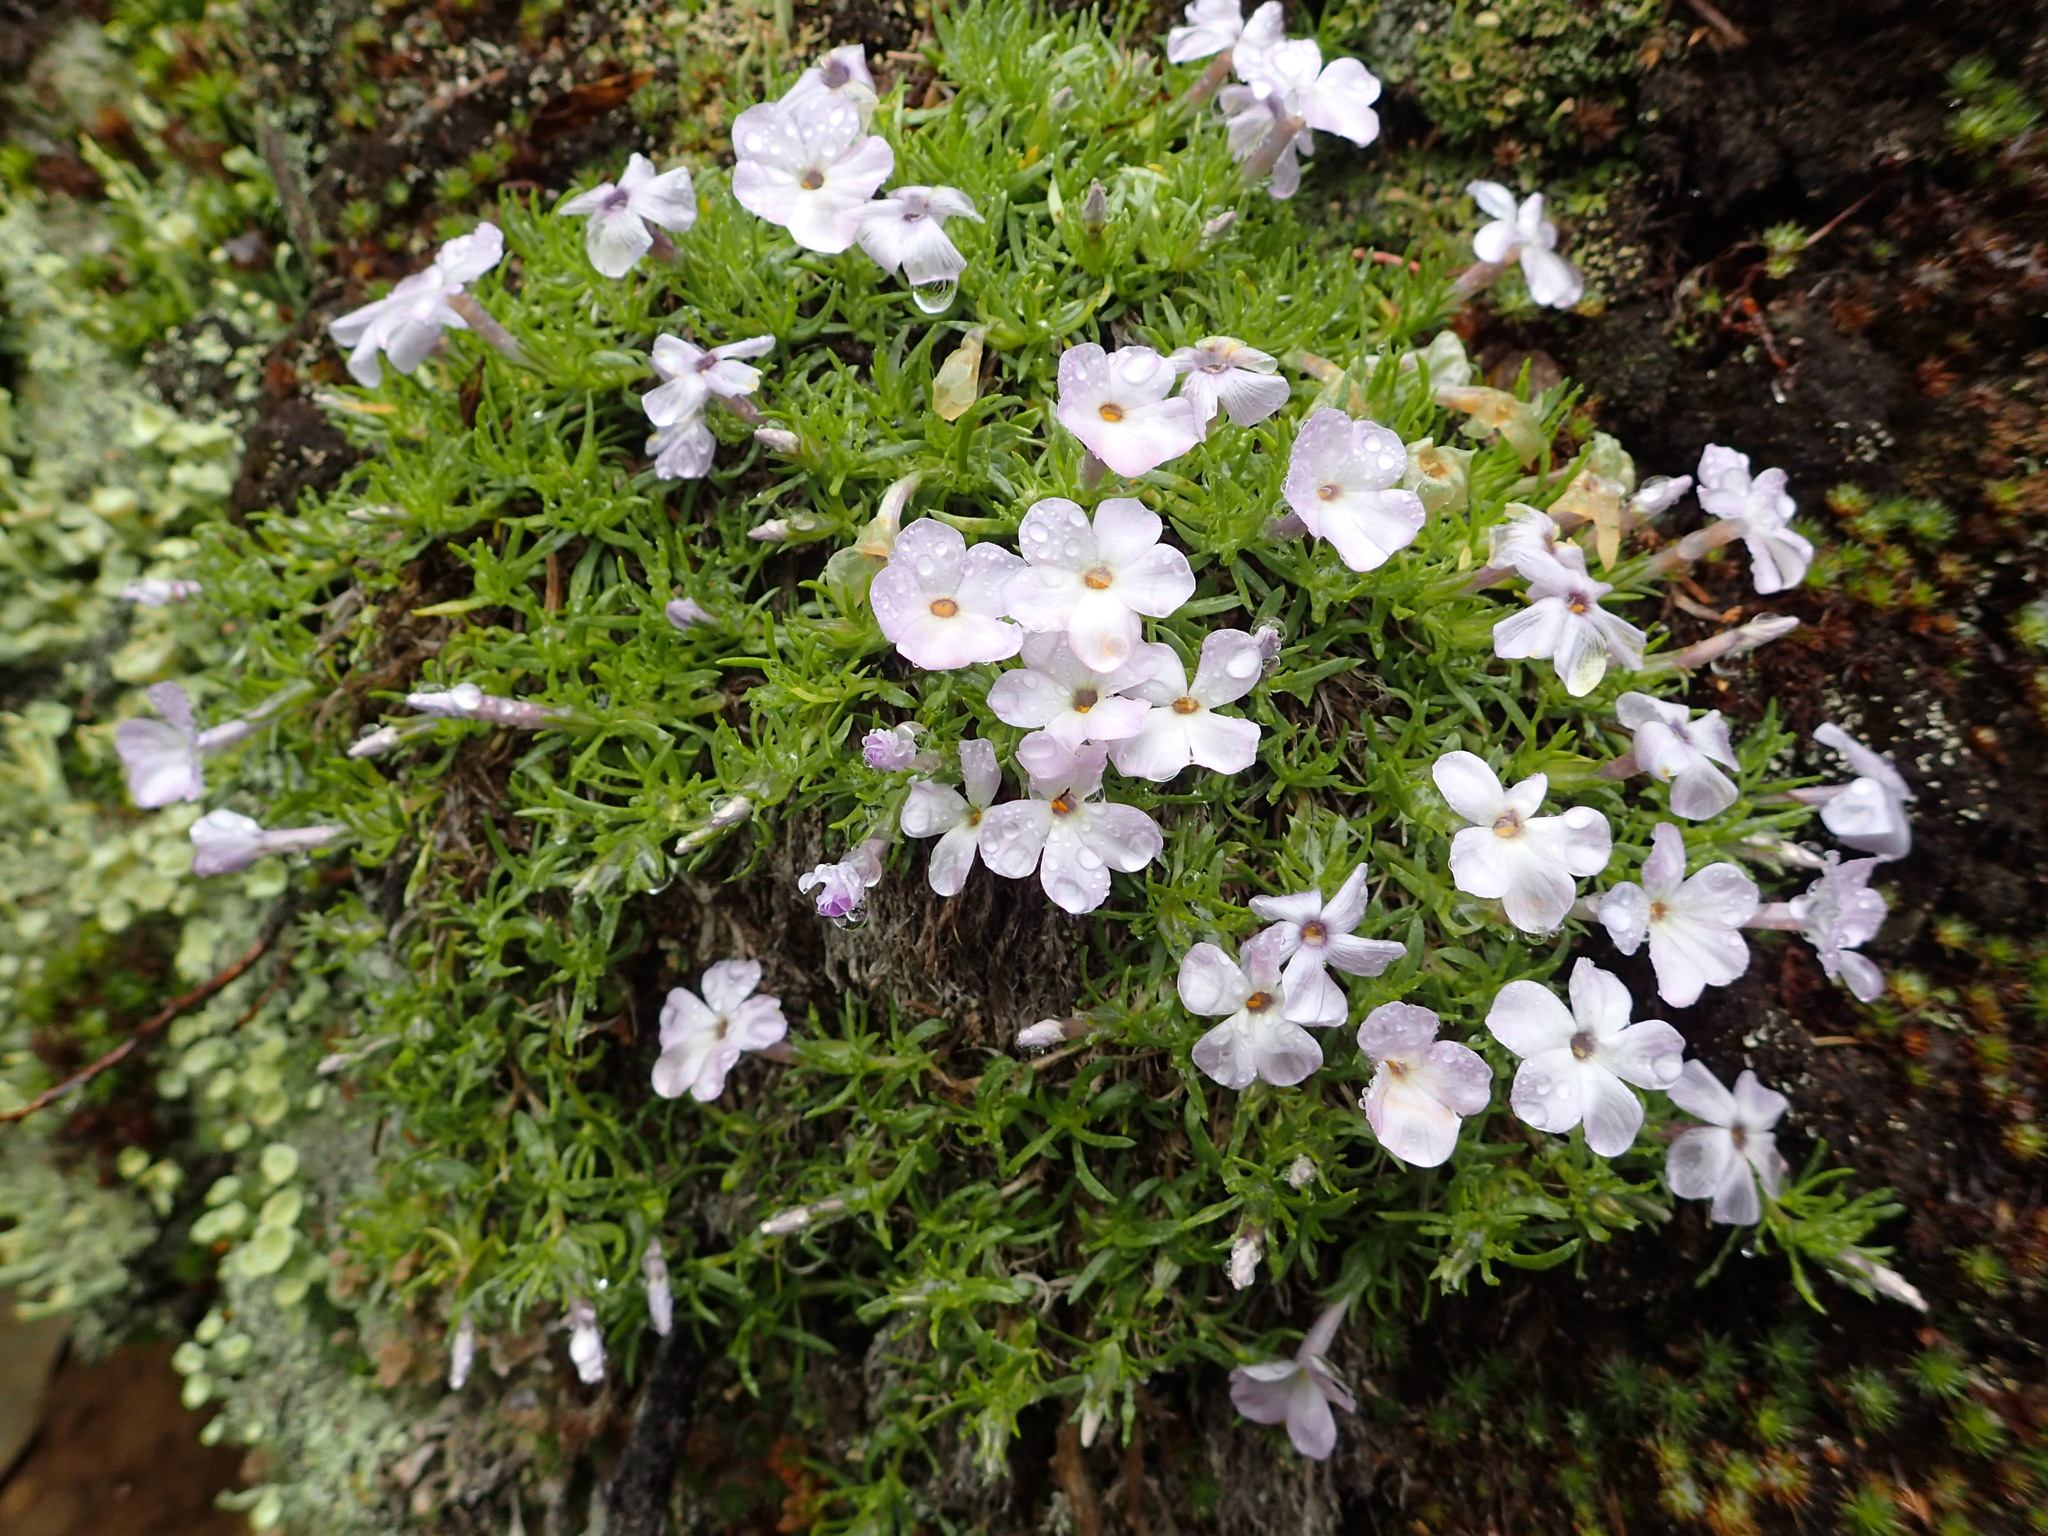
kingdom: Plantae
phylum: Tracheophyta
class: Magnoliopsida
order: Ericales
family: Polemoniaceae
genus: Phlox
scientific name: Phlox diffusa
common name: Mat phlox
